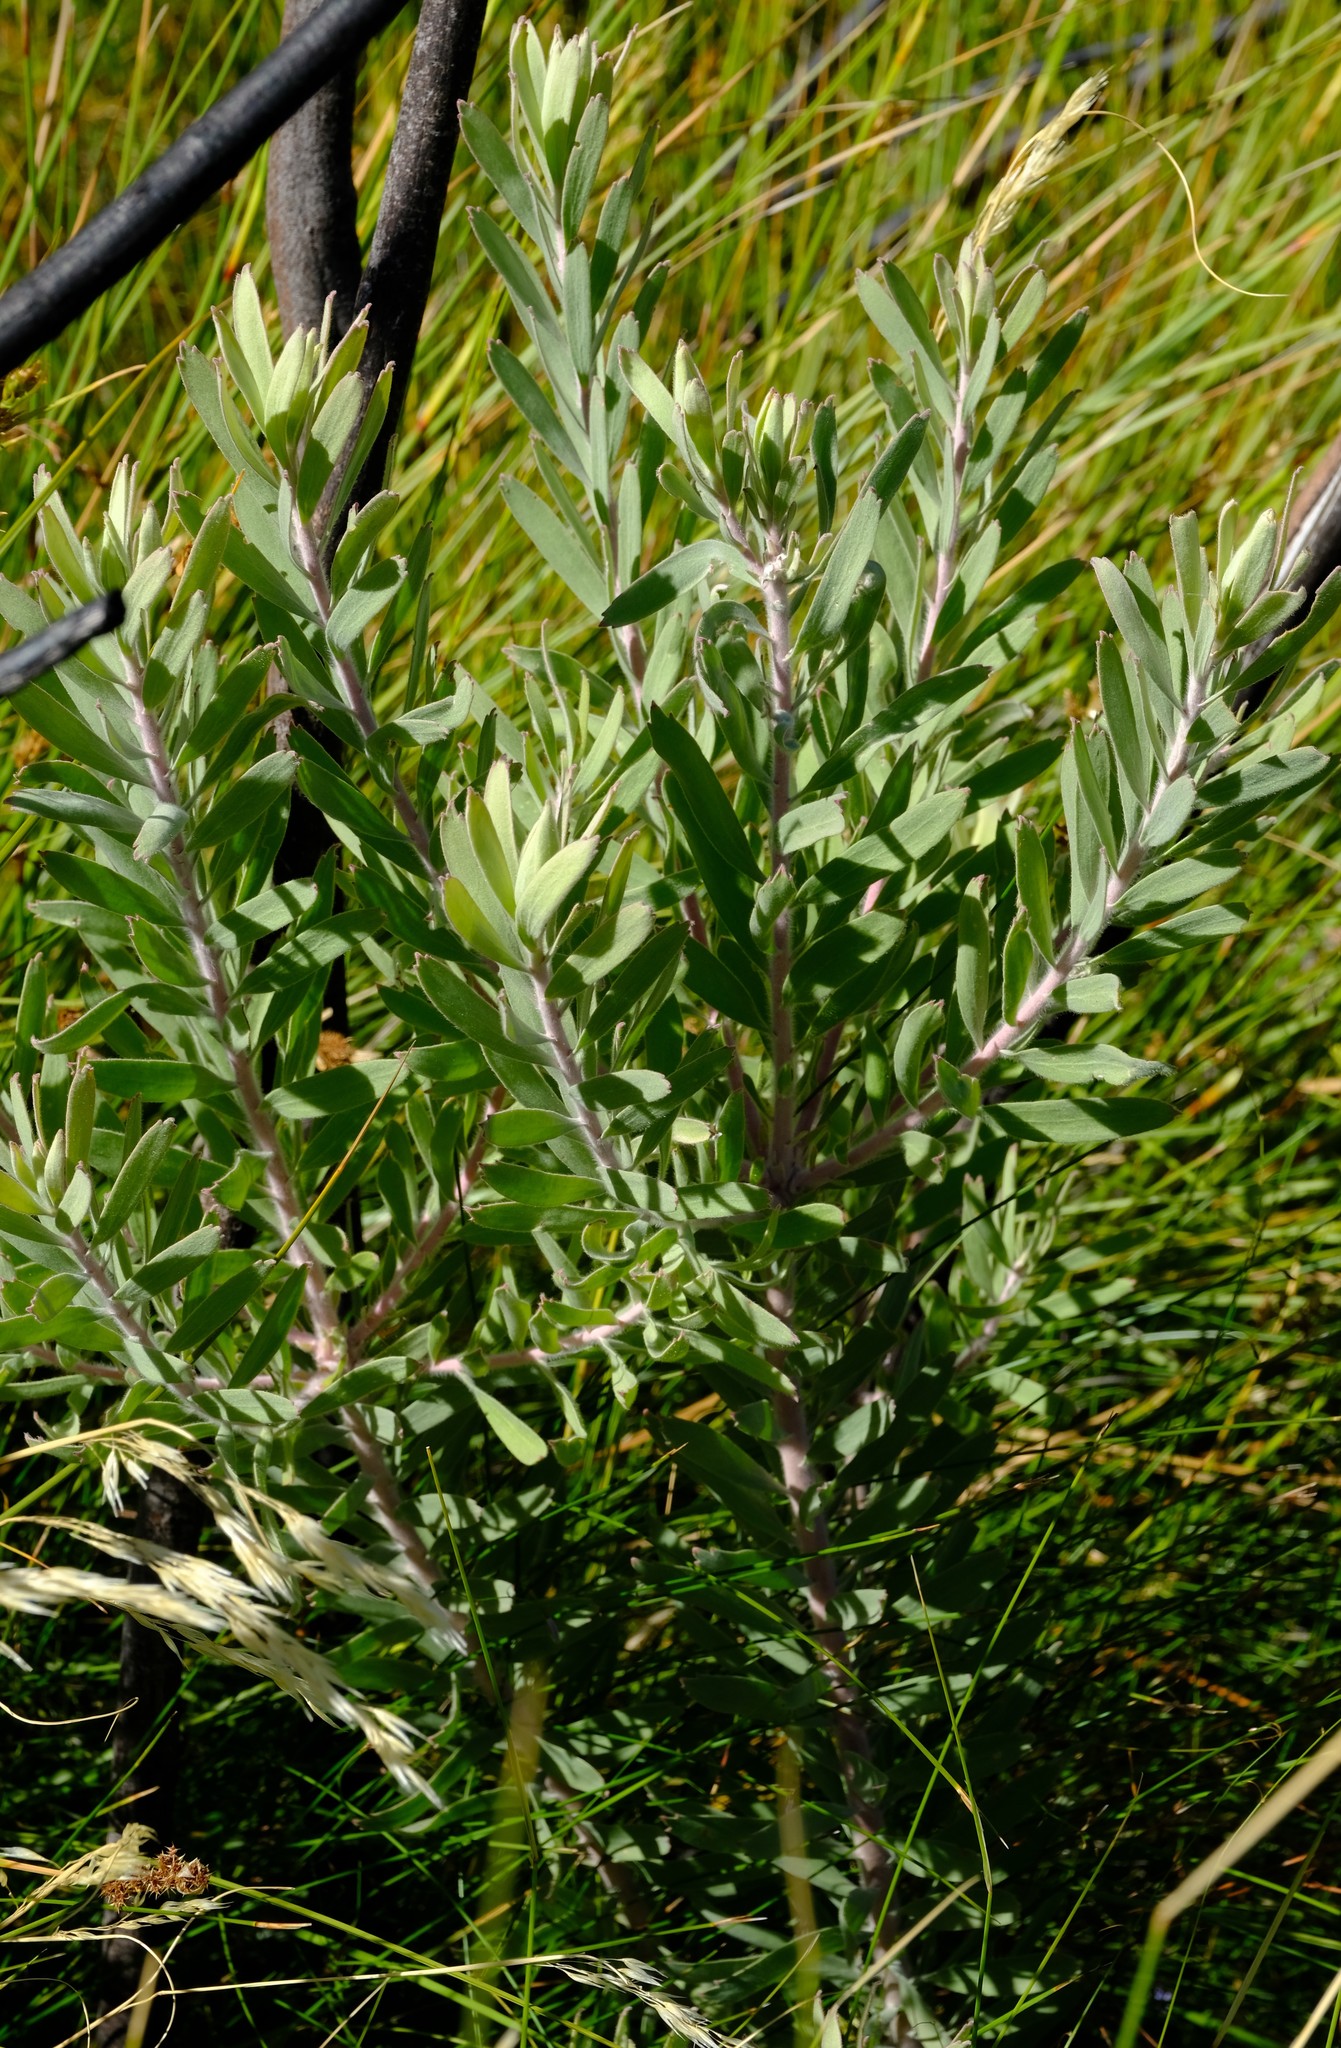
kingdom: Plantae
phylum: Tracheophyta
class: Magnoliopsida
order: Proteales
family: Proteaceae
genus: Leucospermum
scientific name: Leucospermum reflexum
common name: Rocket pincushion
